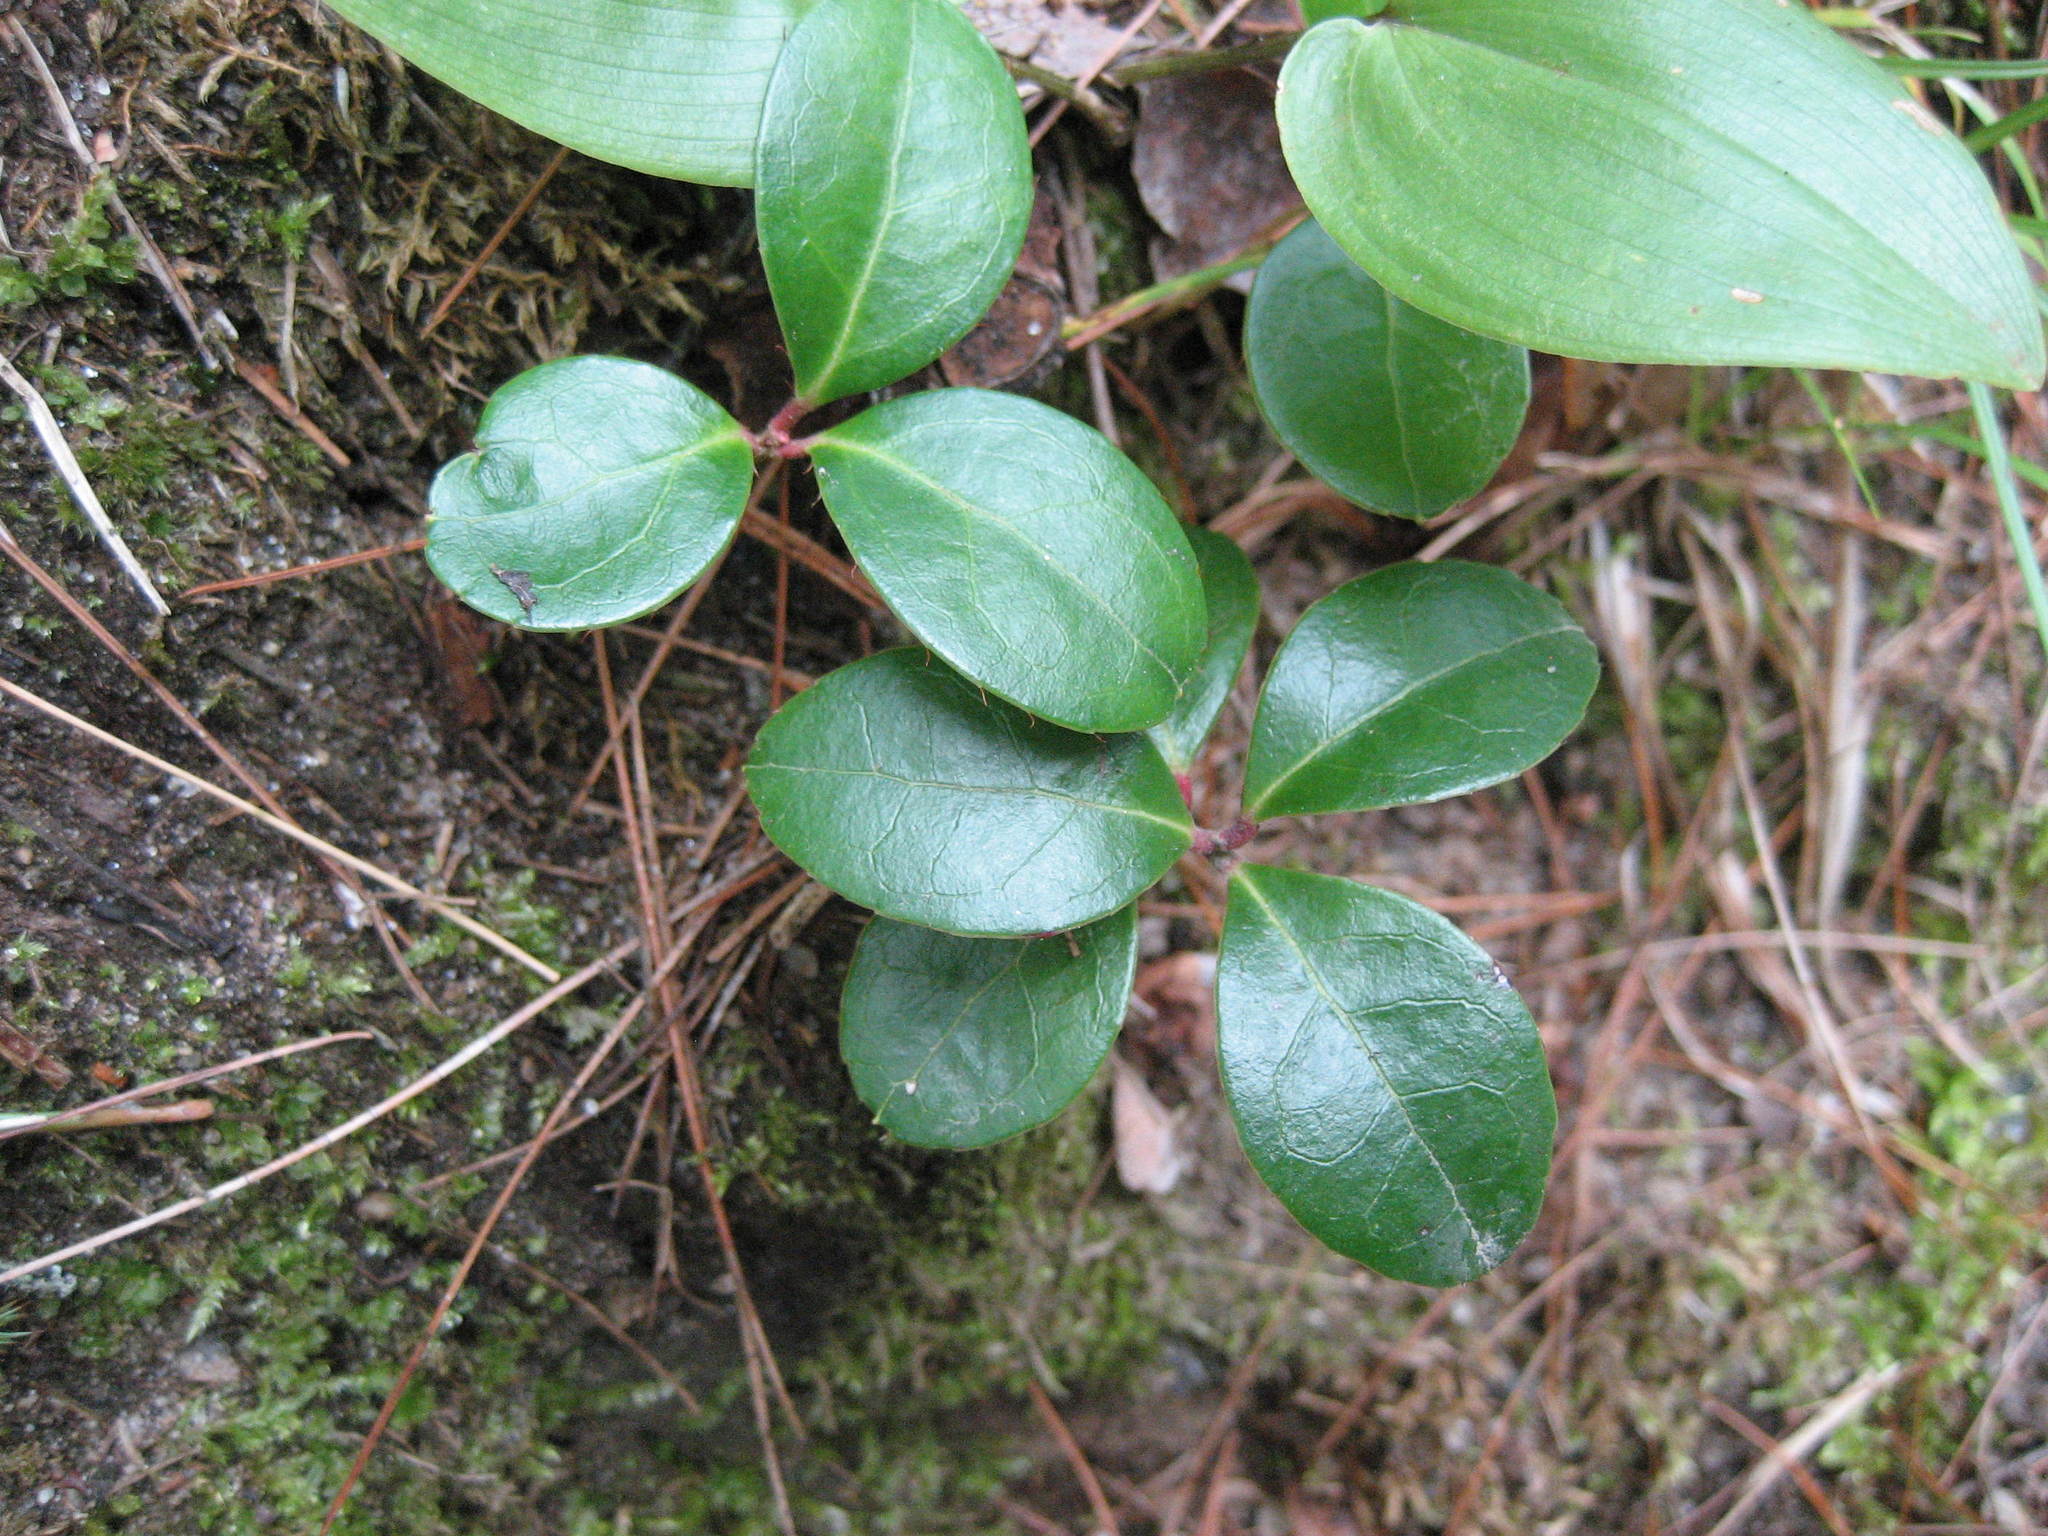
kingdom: Plantae
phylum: Tracheophyta
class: Magnoliopsida
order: Ericales
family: Ericaceae
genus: Gaultheria
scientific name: Gaultheria procumbens
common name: Checkerberry
